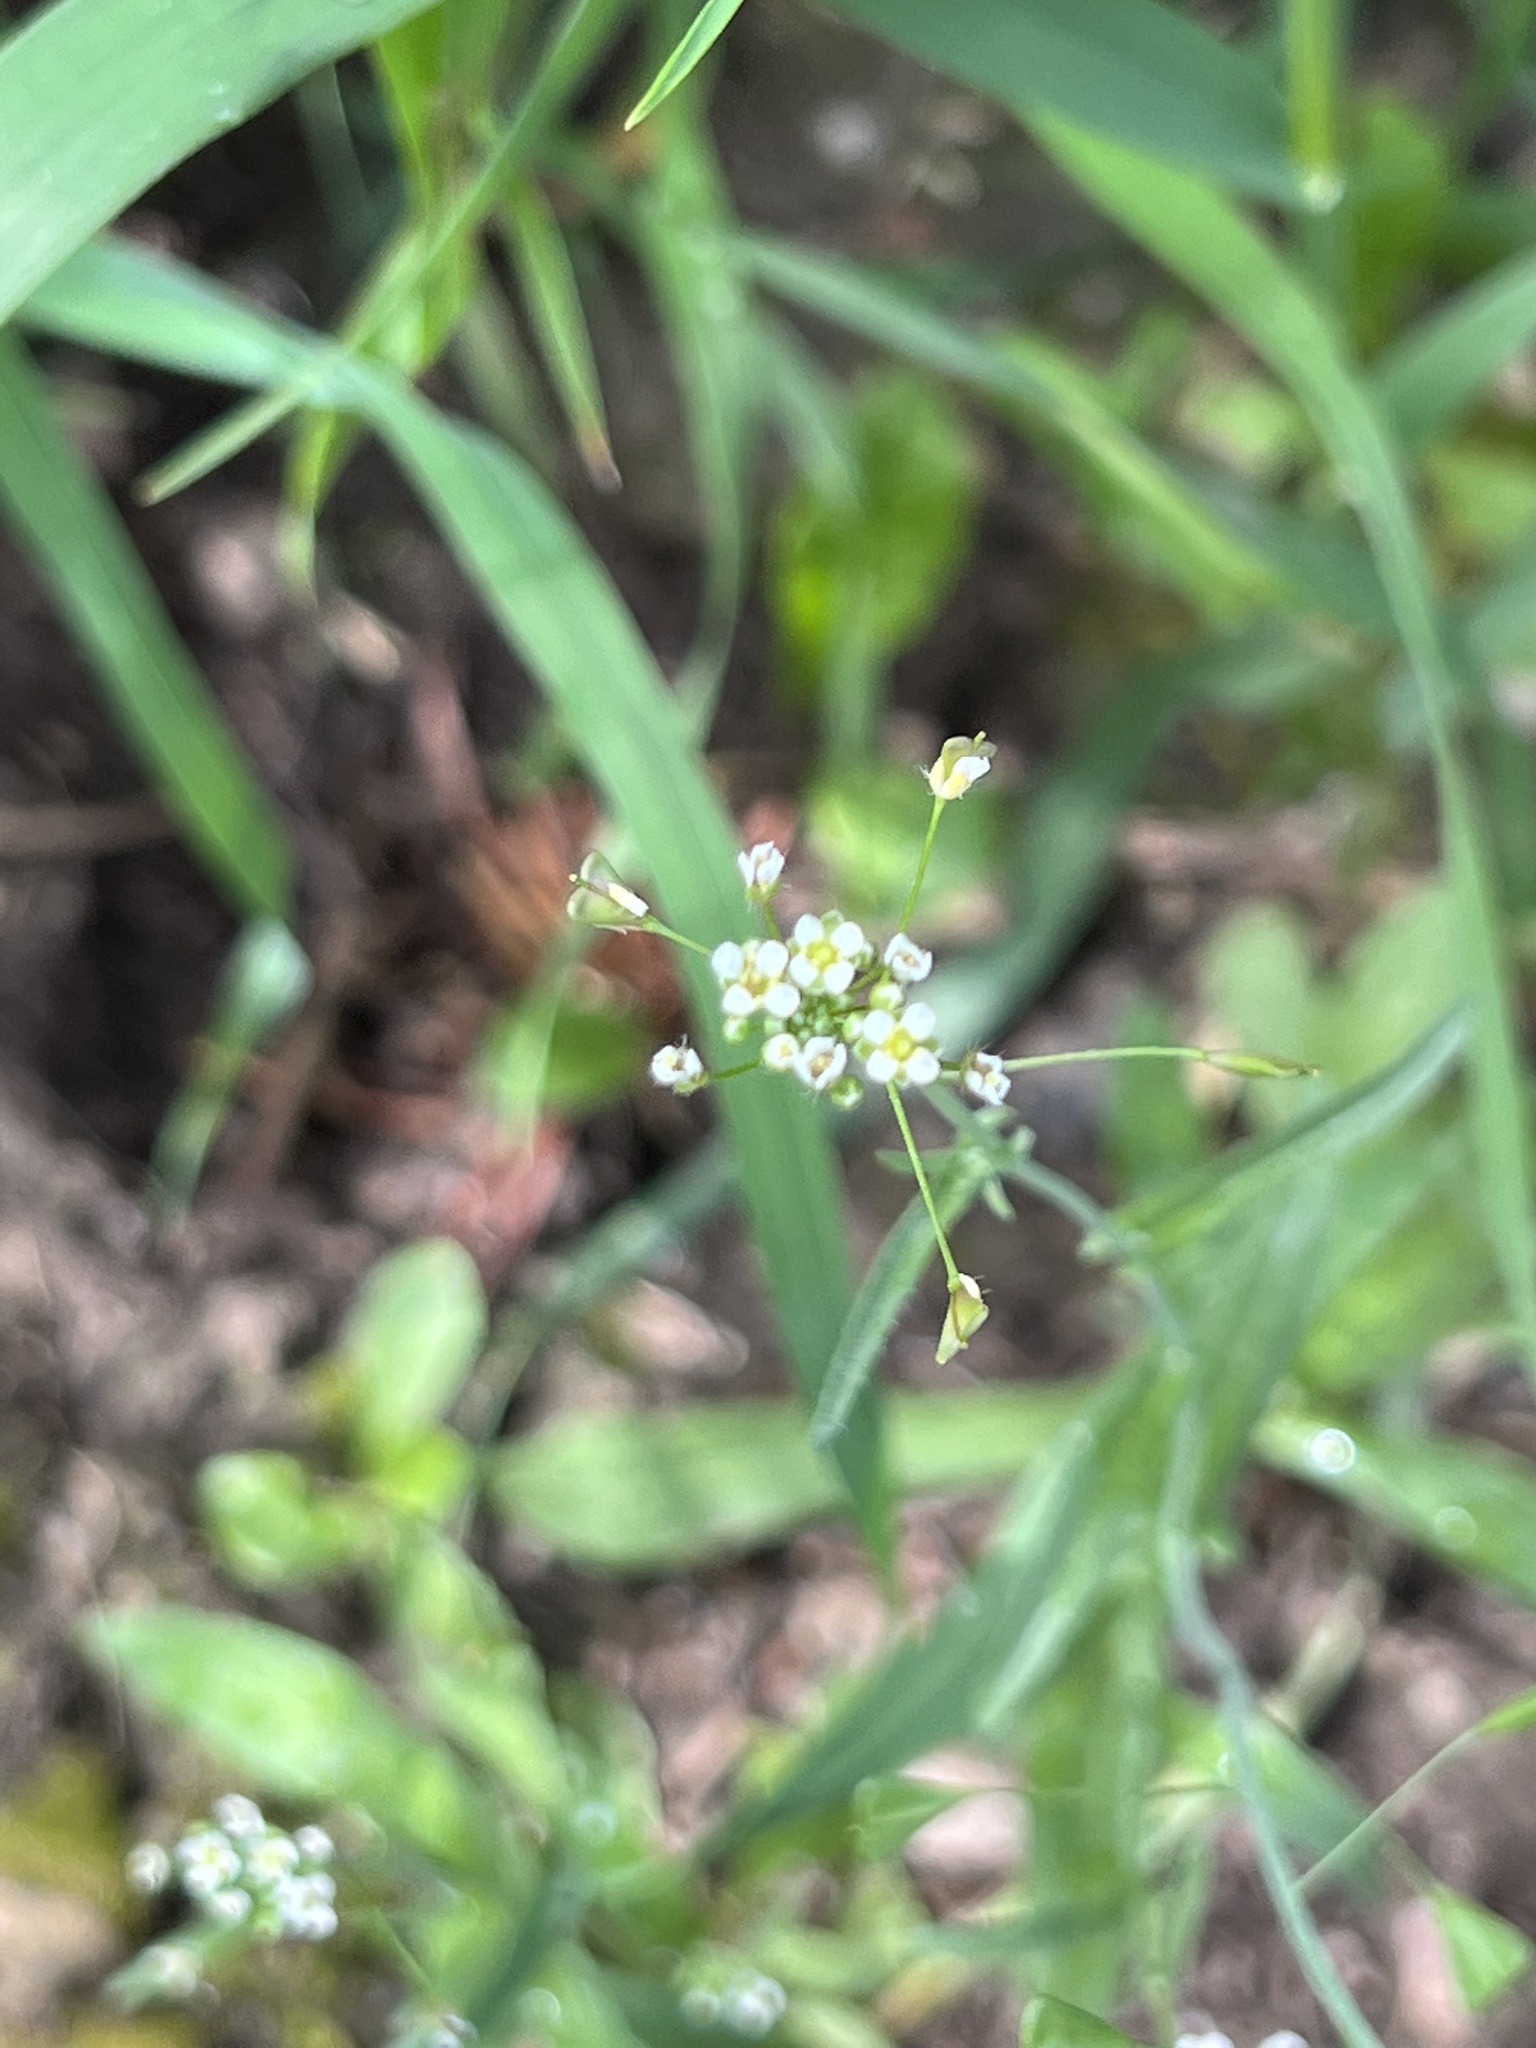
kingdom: Plantae
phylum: Tracheophyta
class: Magnoliopsida
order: Brassicales
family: Brassicaceae
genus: Capsella
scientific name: Capsella bursa-pastoris
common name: Shepherd's purse
